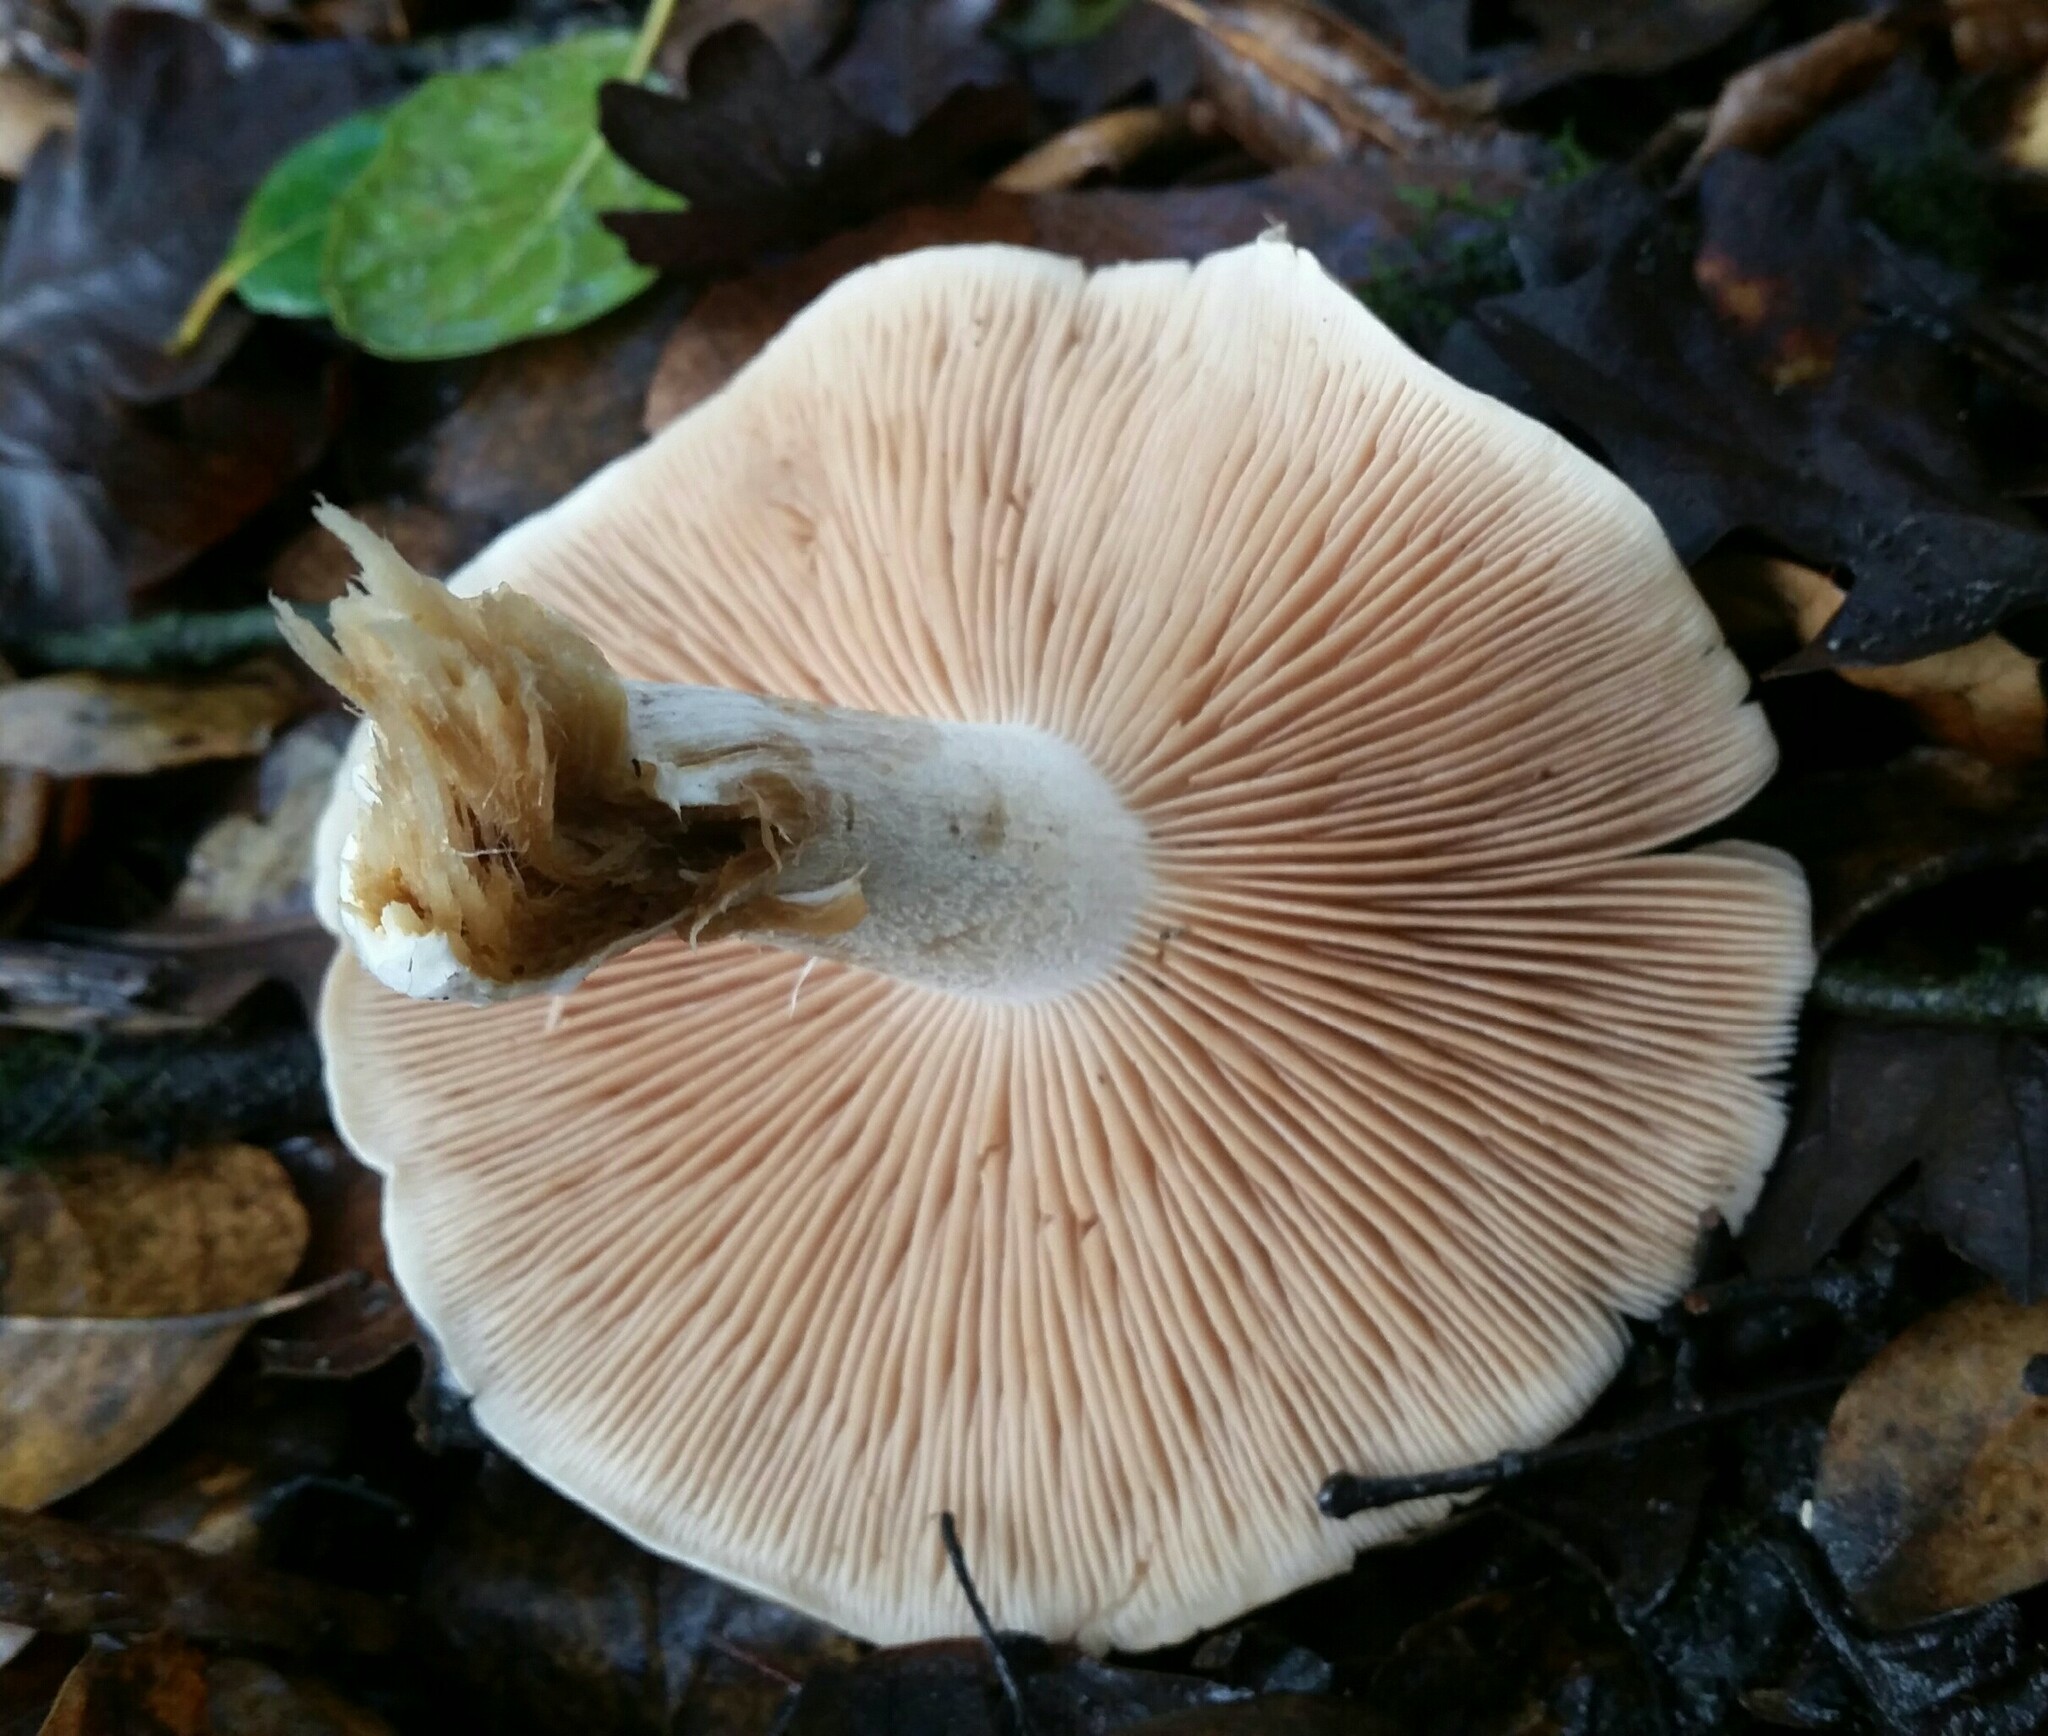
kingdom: Fungi
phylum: Basidiomycota
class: Agaricomycetes
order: Agaricales
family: Hymenogastraceae
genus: Hebeloma
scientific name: Hebeloma crustuliniforme
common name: Poison pie
